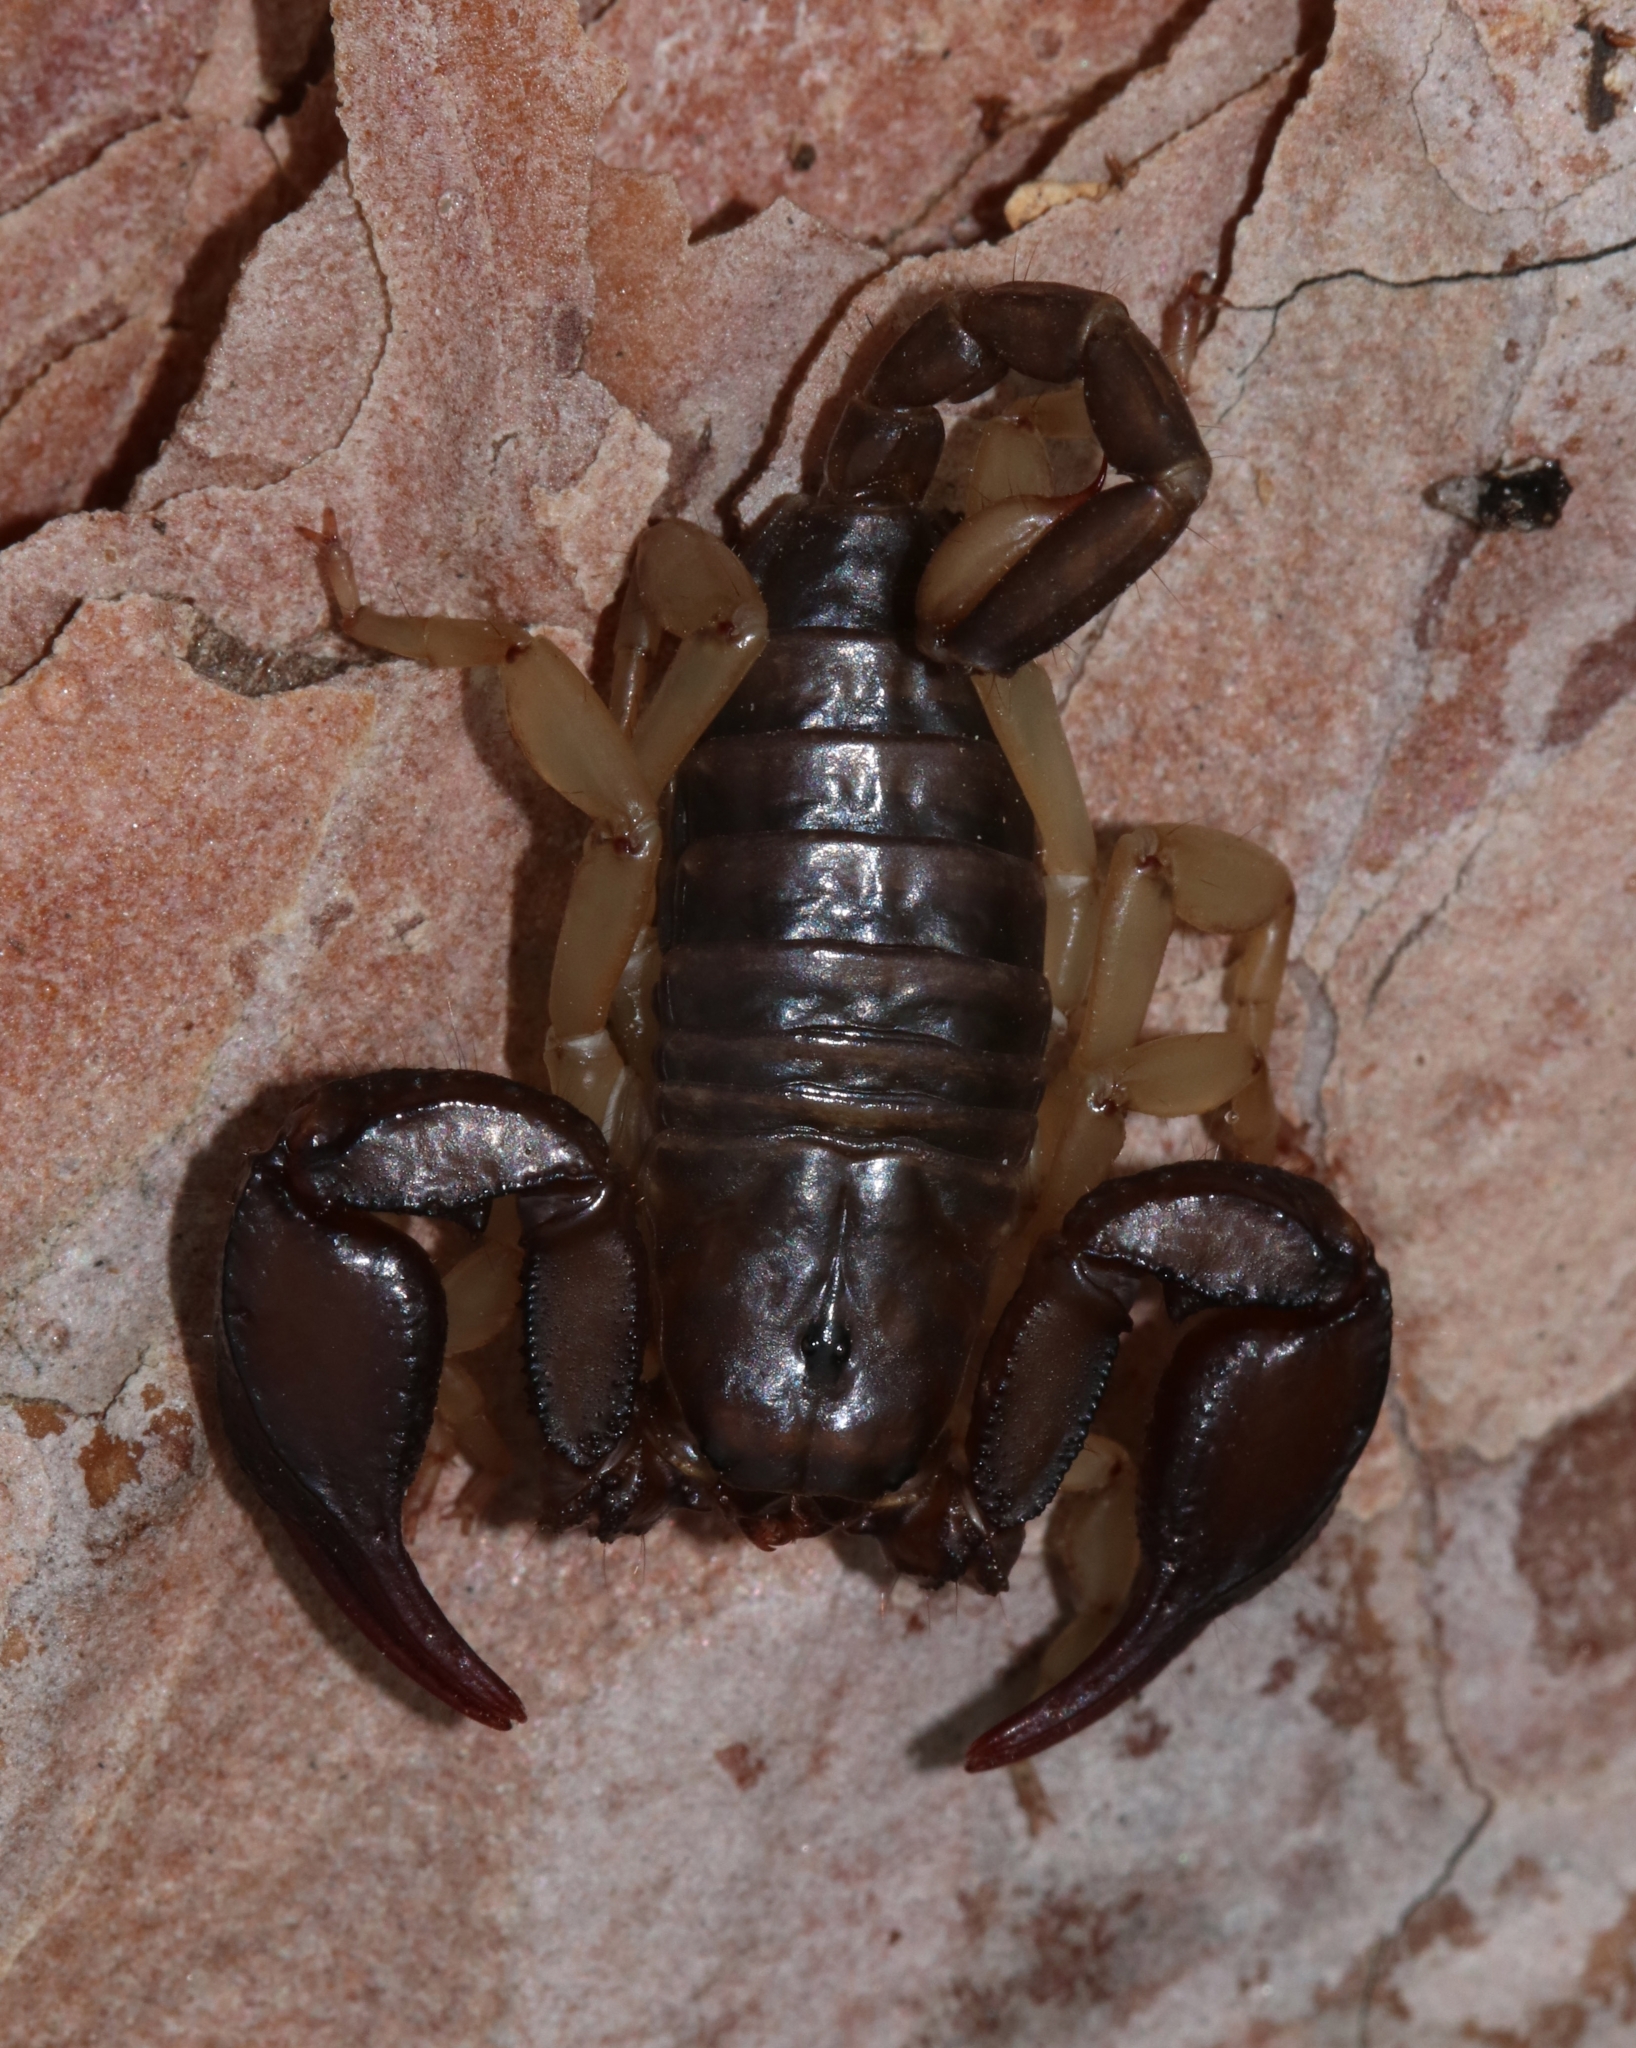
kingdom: Animalia
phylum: Arthropoda
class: Arachnida
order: Scorpiones
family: Euscorpiidae
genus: Euscorpius
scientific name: Euscorpius
